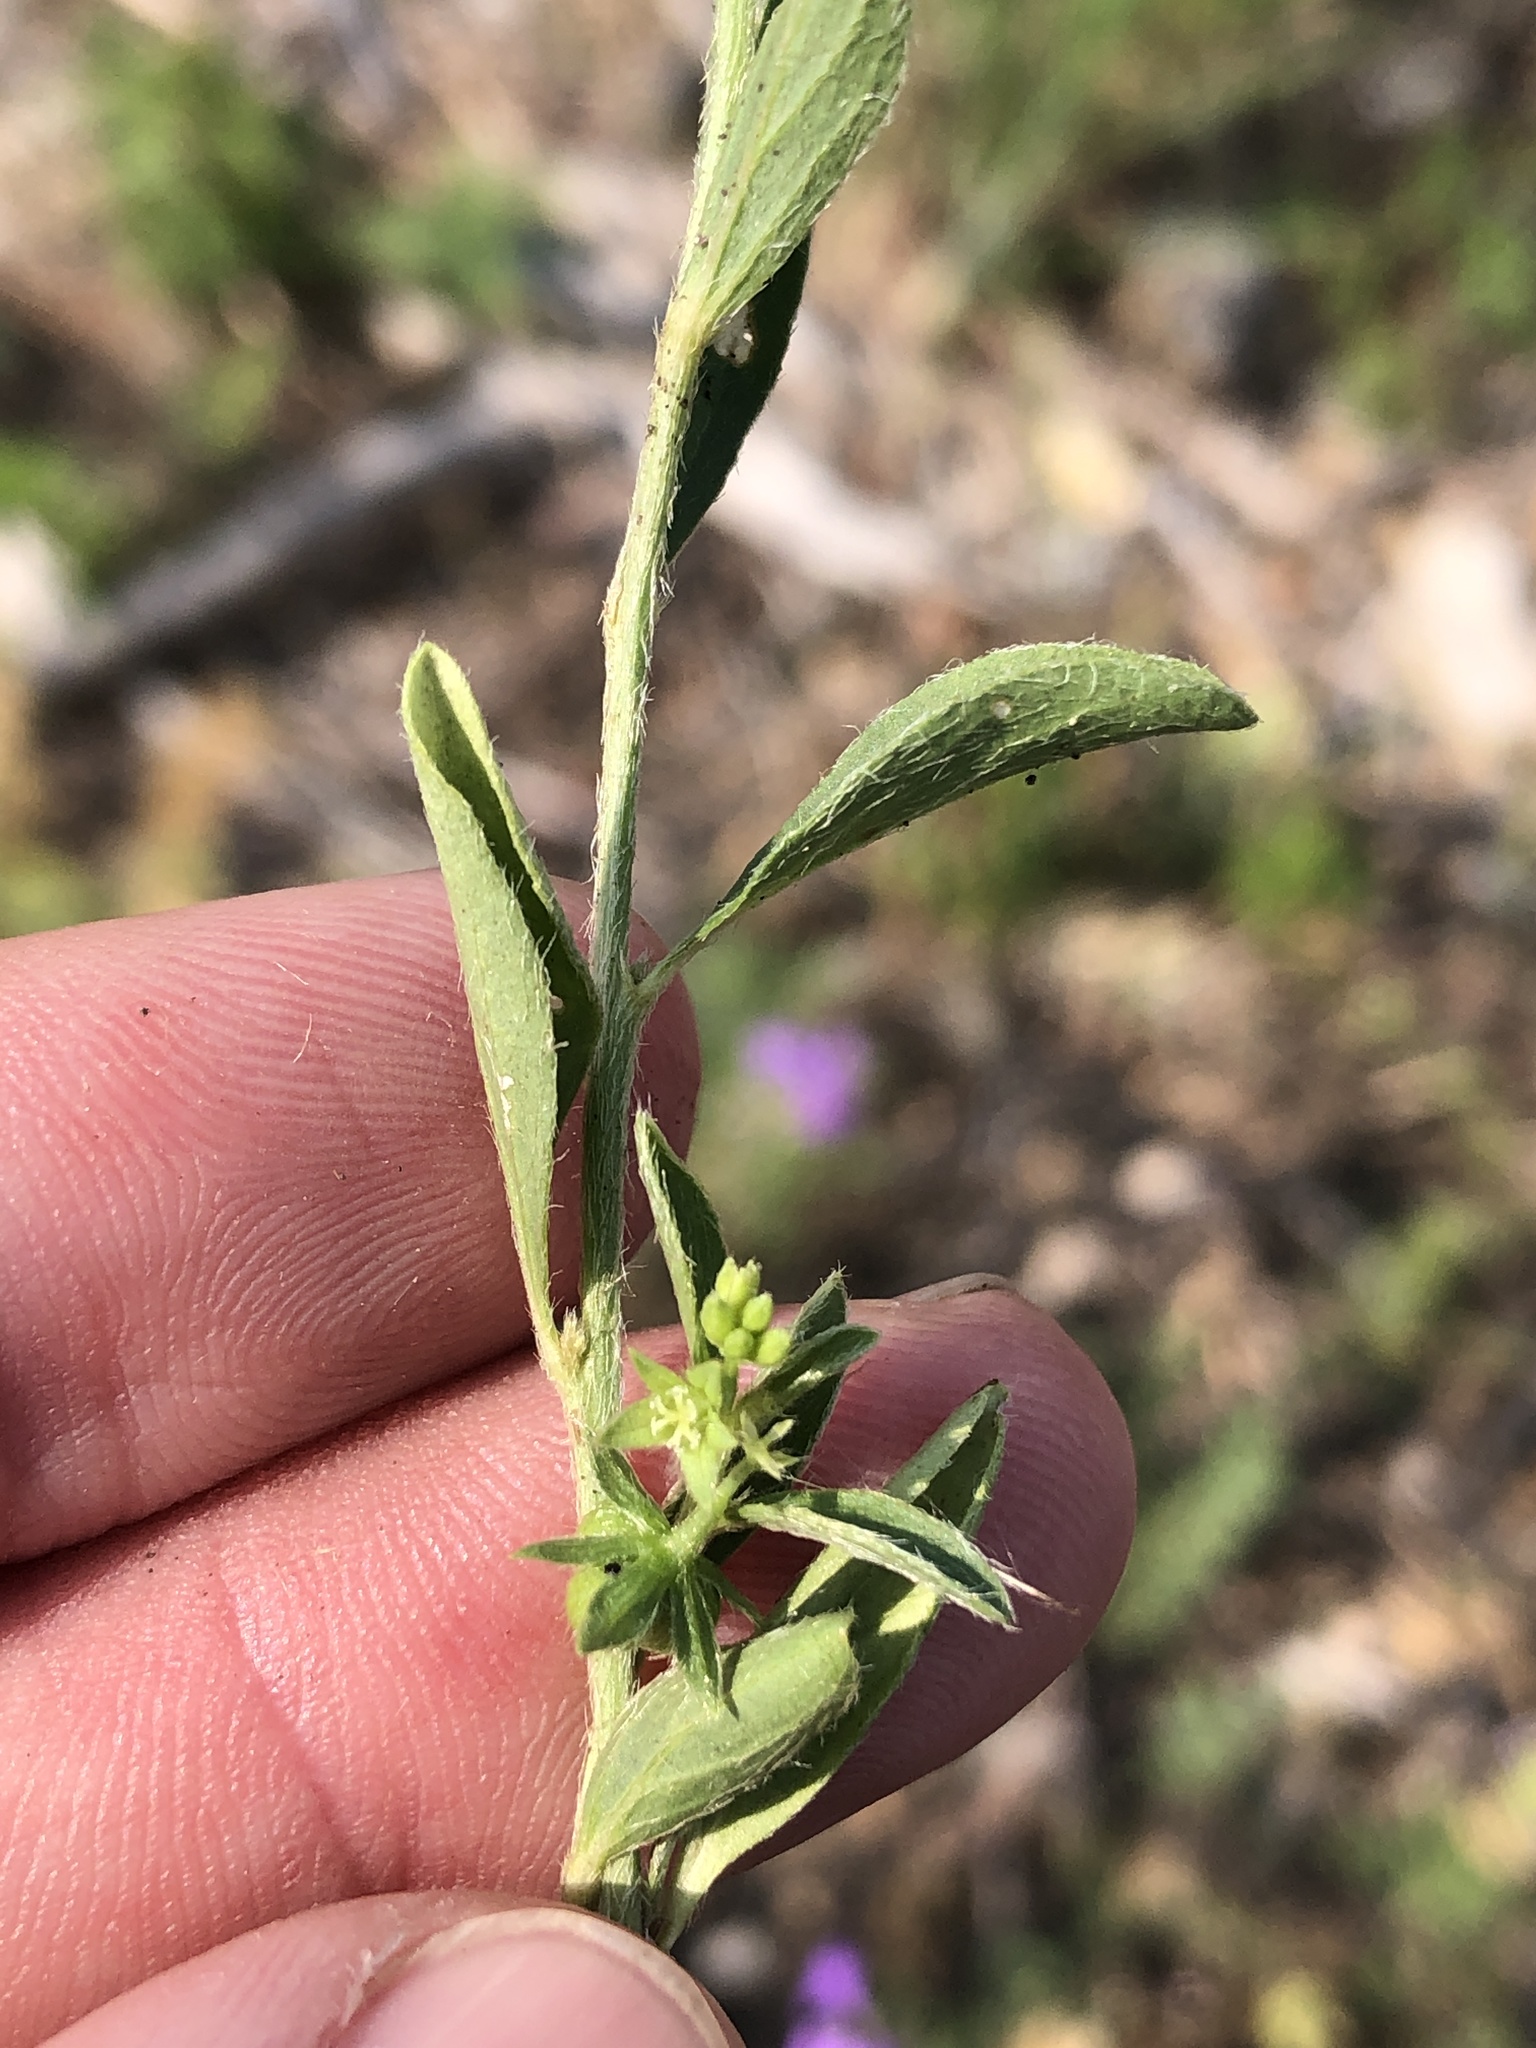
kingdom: Plantae
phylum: Tracheophyta
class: Magnoliopsida
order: Malpighiales
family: Euphorbiaceae
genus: Ditaxis
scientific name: Ditaxis humilis
